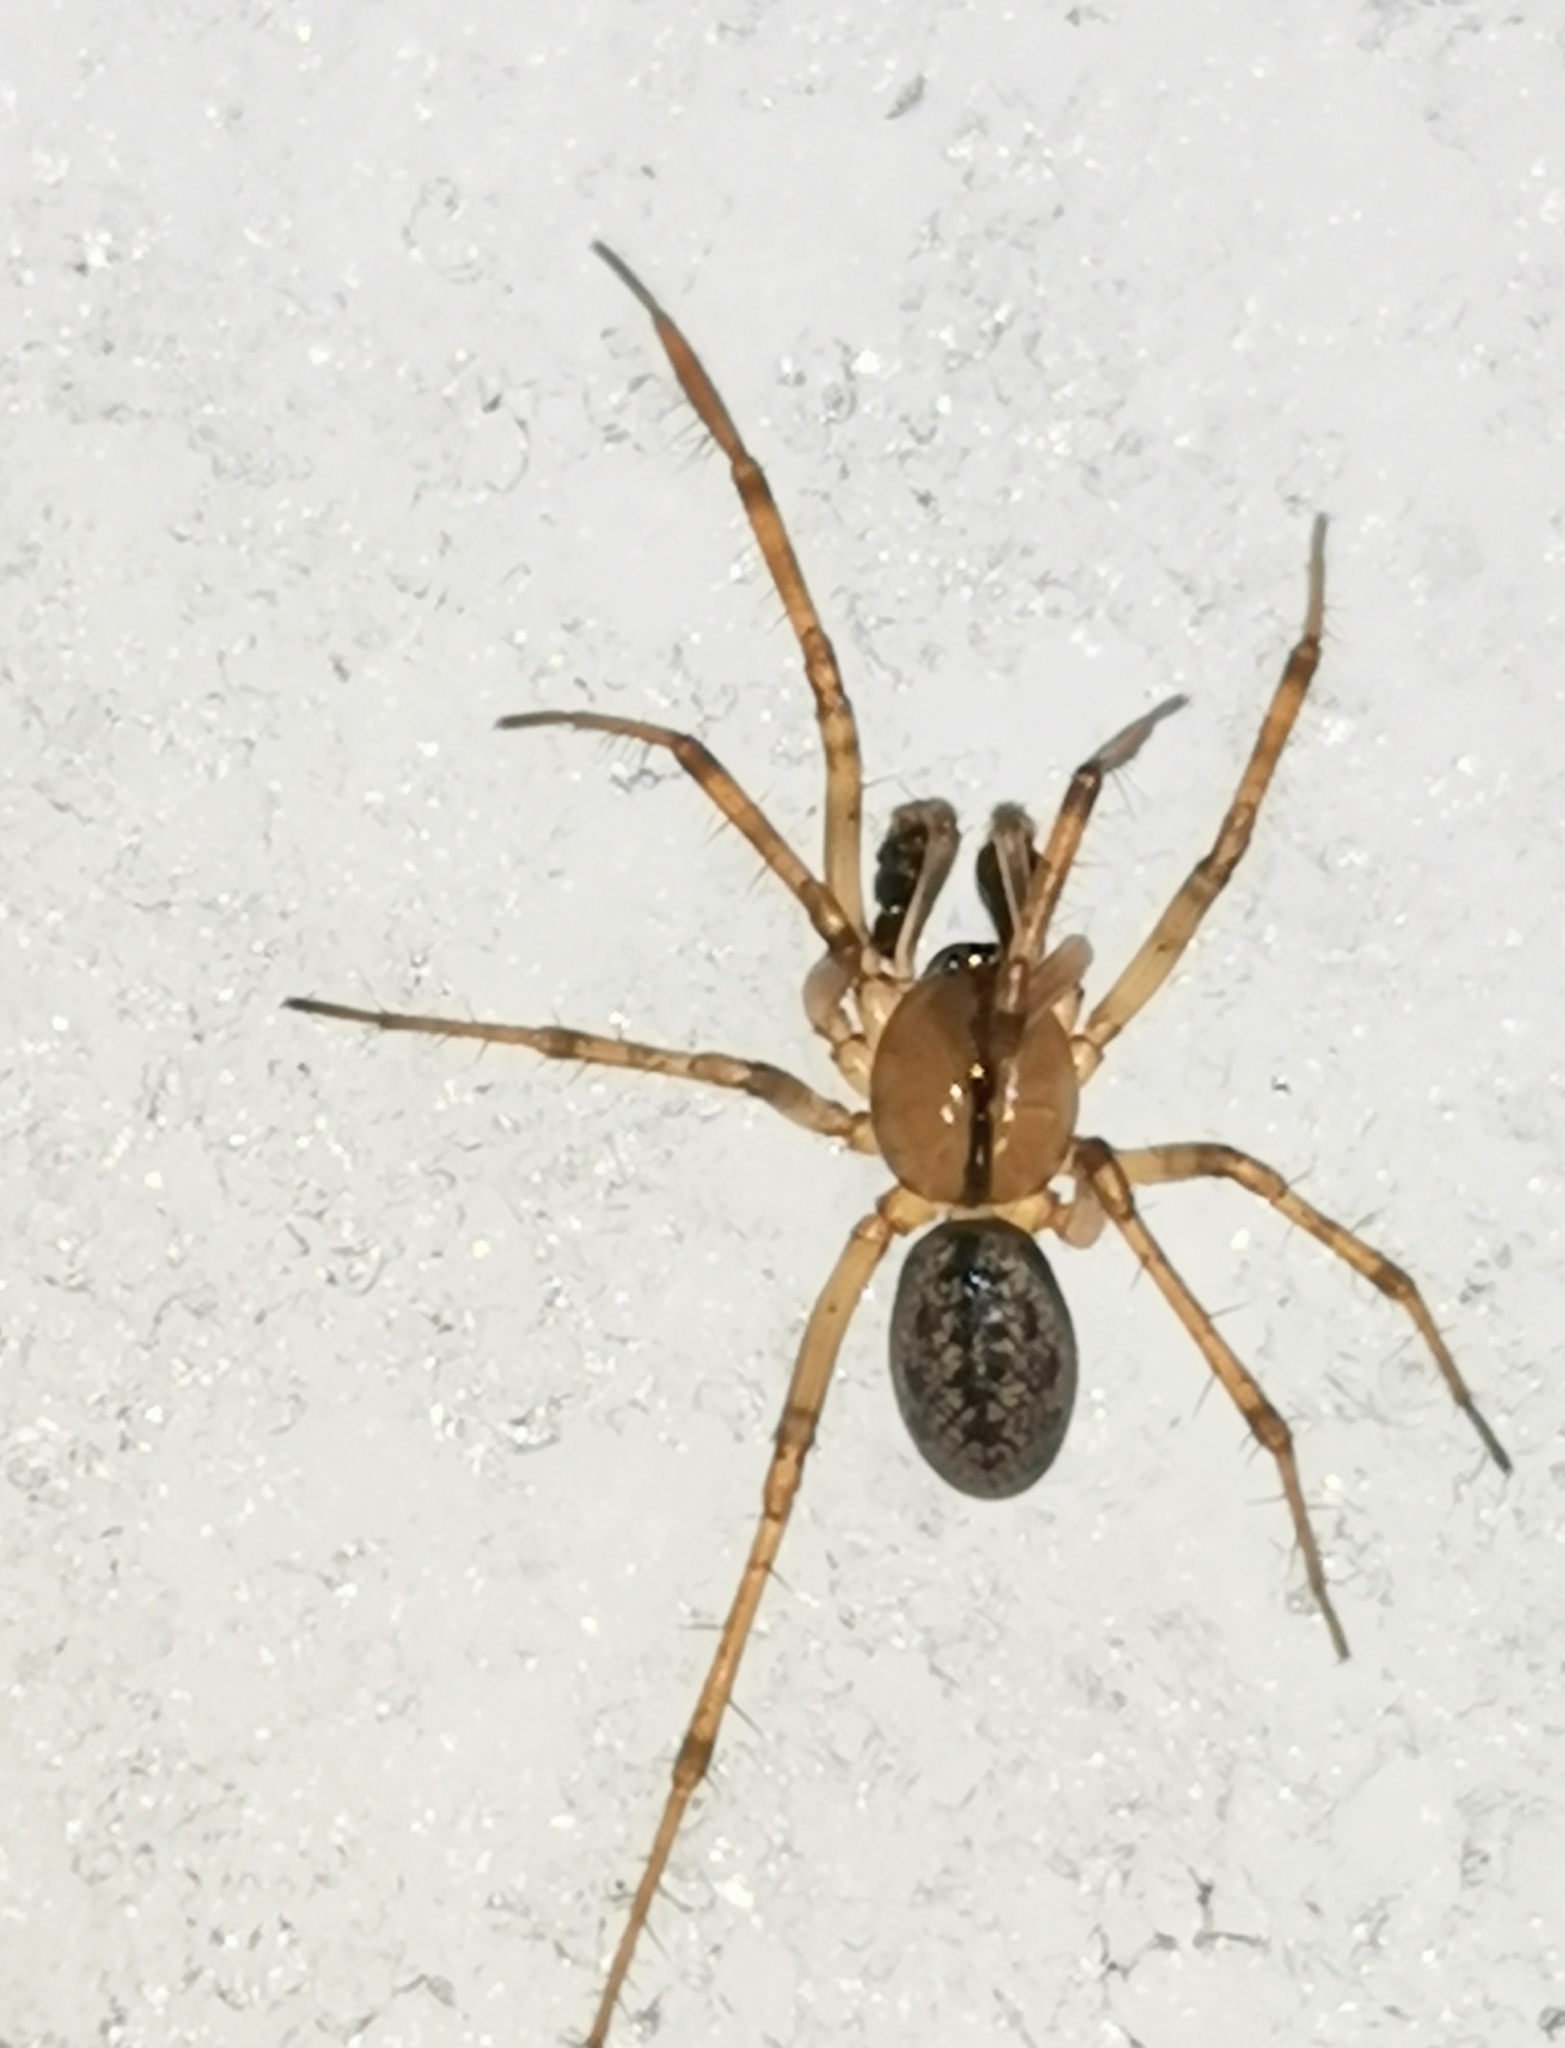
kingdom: Animalia
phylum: Arthropoda
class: Arachnida
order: Araneae
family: Linyphiidae
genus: Stemonyphantes
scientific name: Stemonyphantes lineatus
